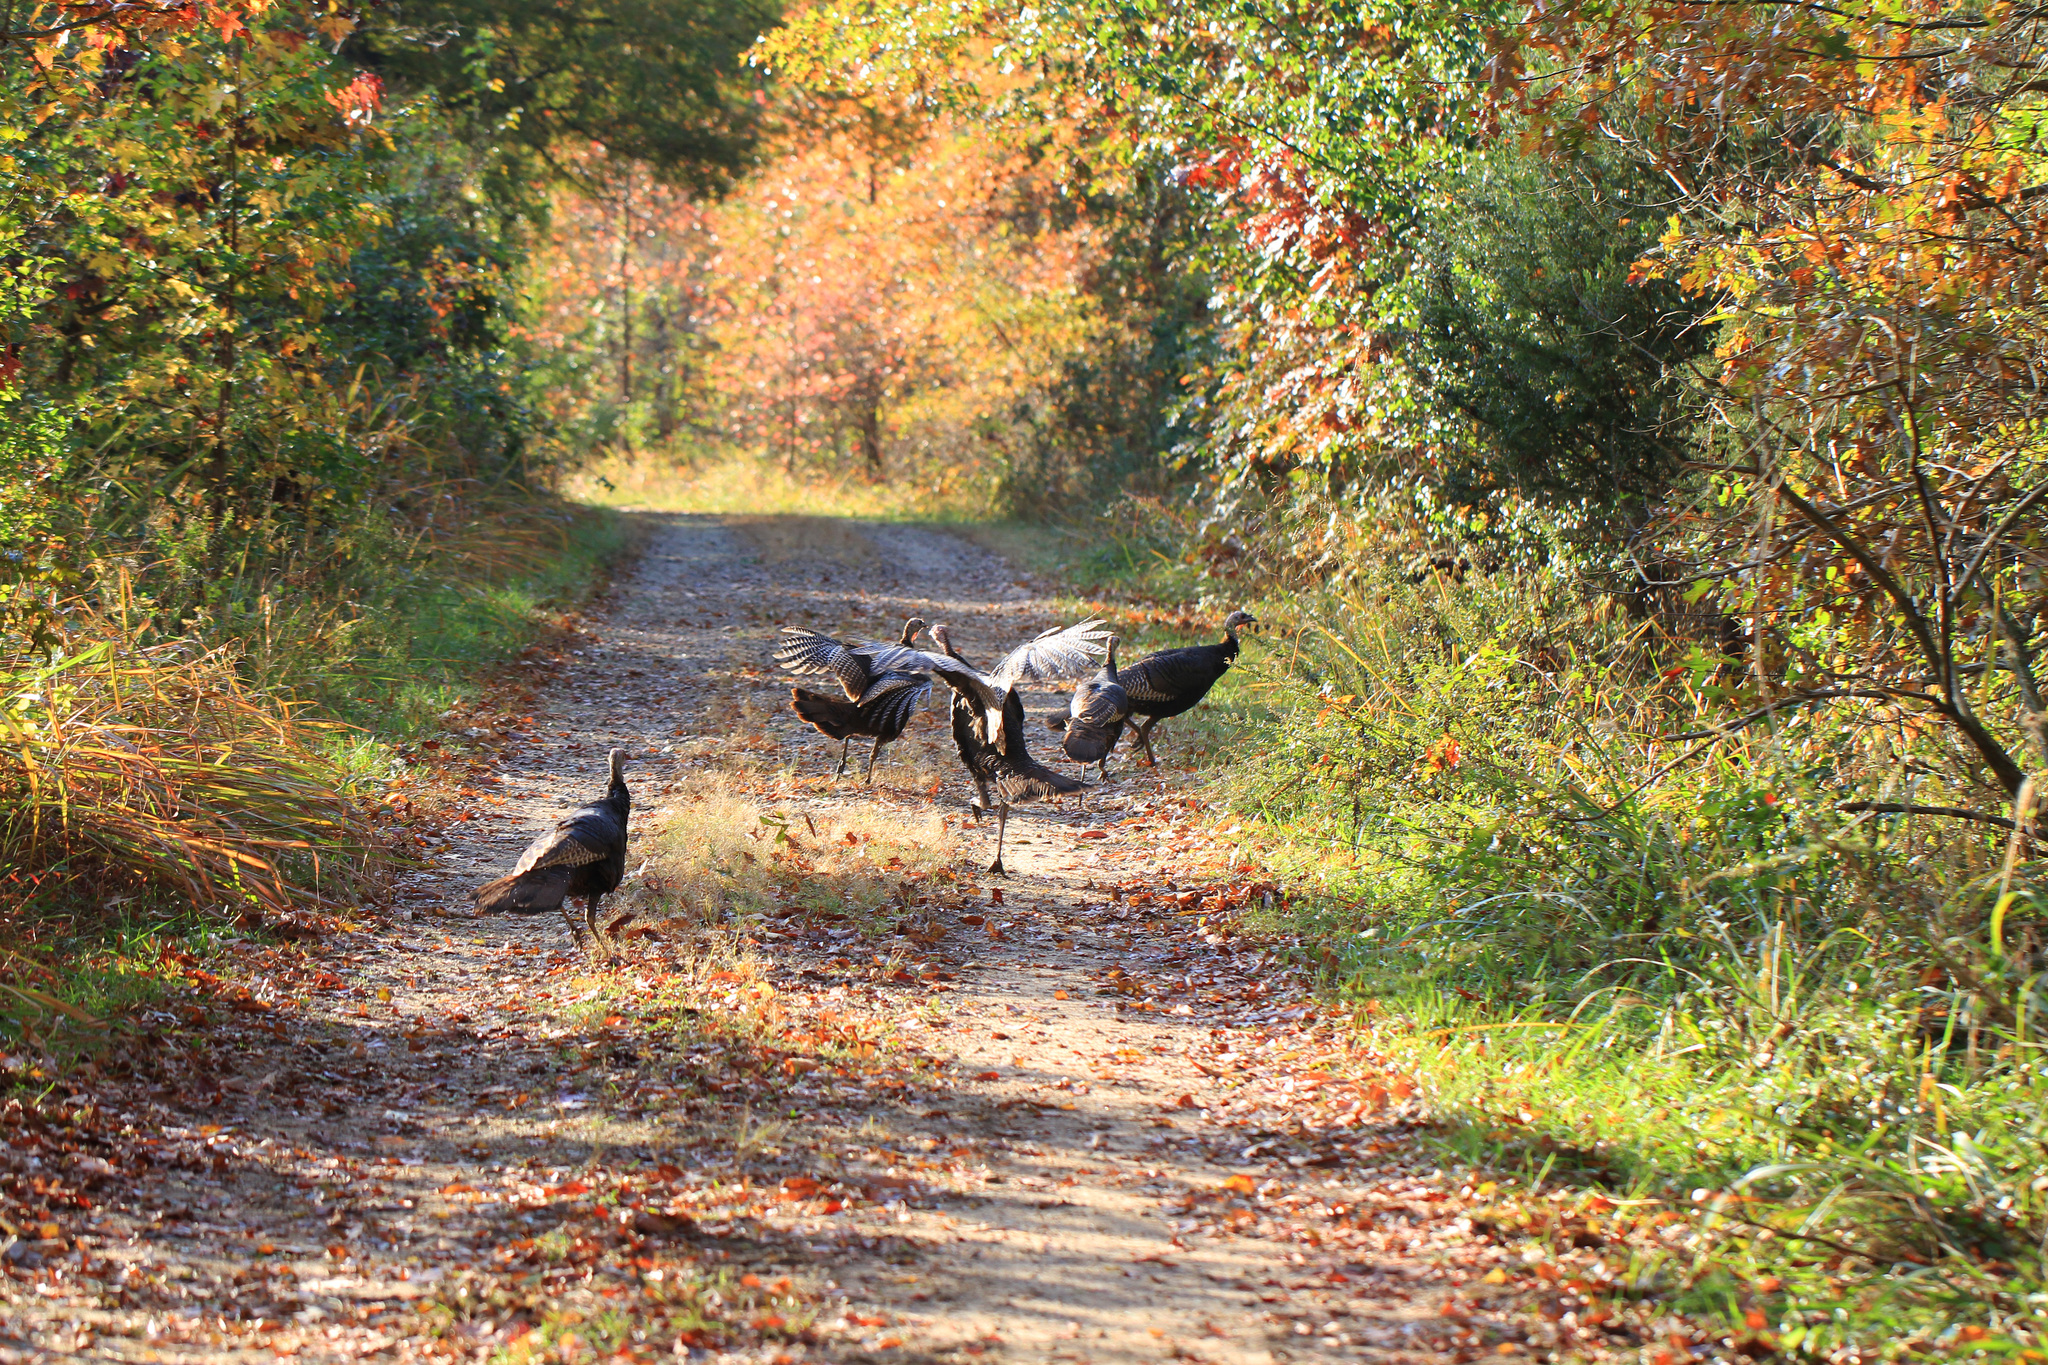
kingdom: Animalia
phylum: Chordata
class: Aves
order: Galliformes
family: Phasianidae
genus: Meleagris
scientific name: Meleagris gallopavo
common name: Wild turkey
